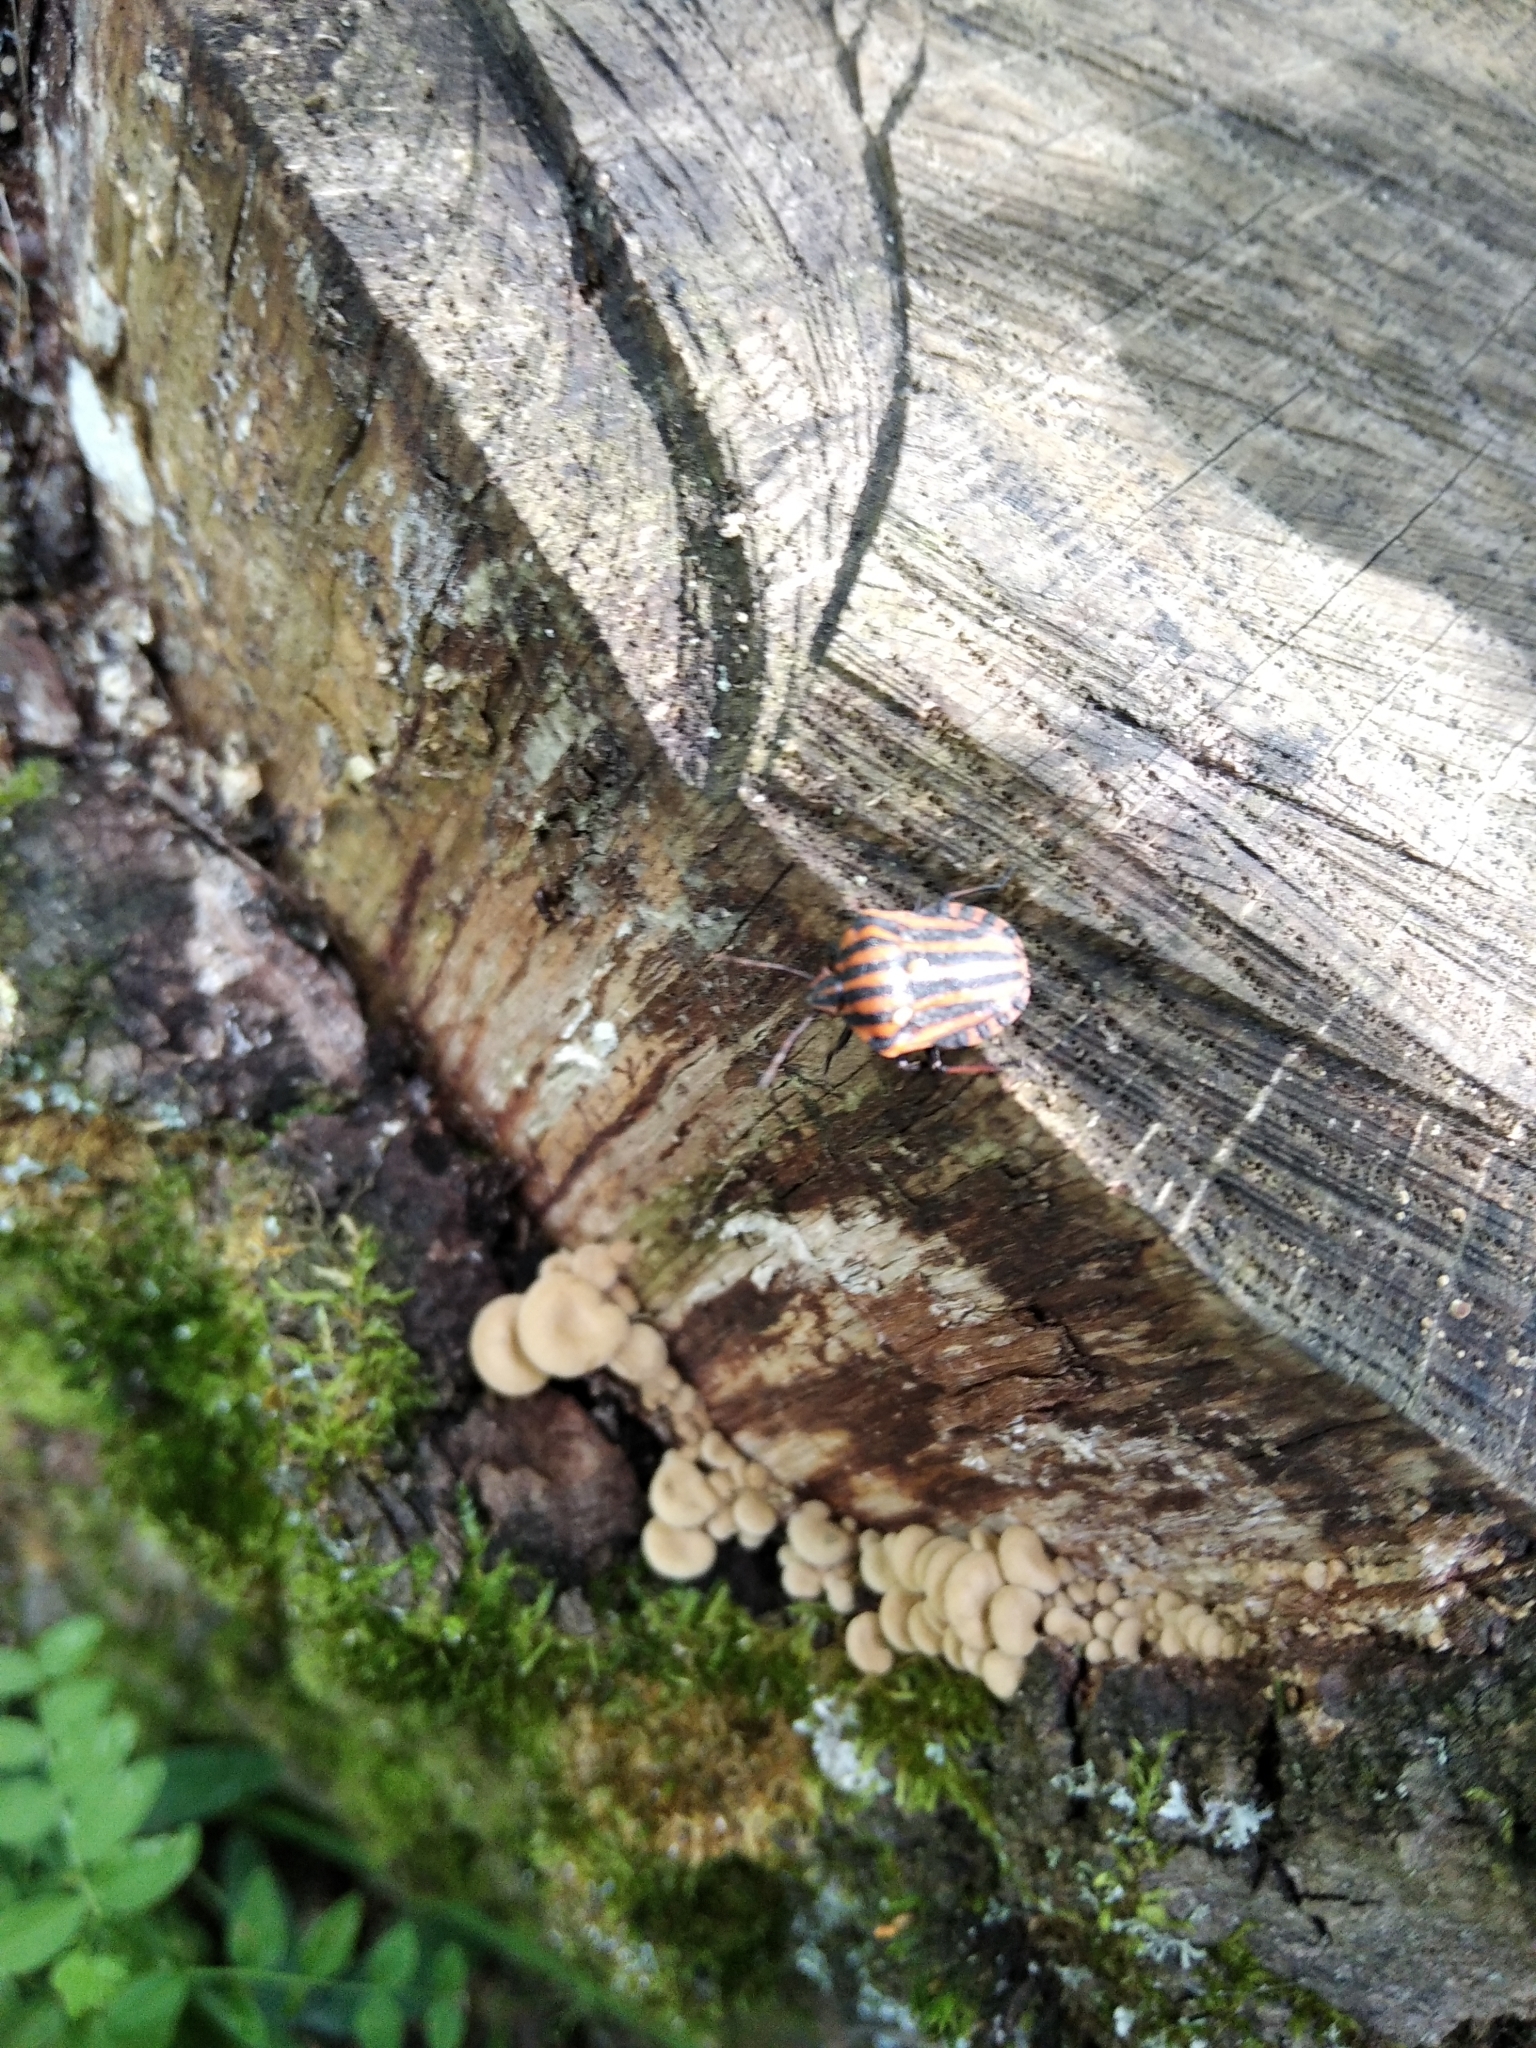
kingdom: Animalia
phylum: Arthropoda
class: Insecta
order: Hemiptera
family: Pentatomidae
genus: Graphosoma
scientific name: Graphosoma italicum
